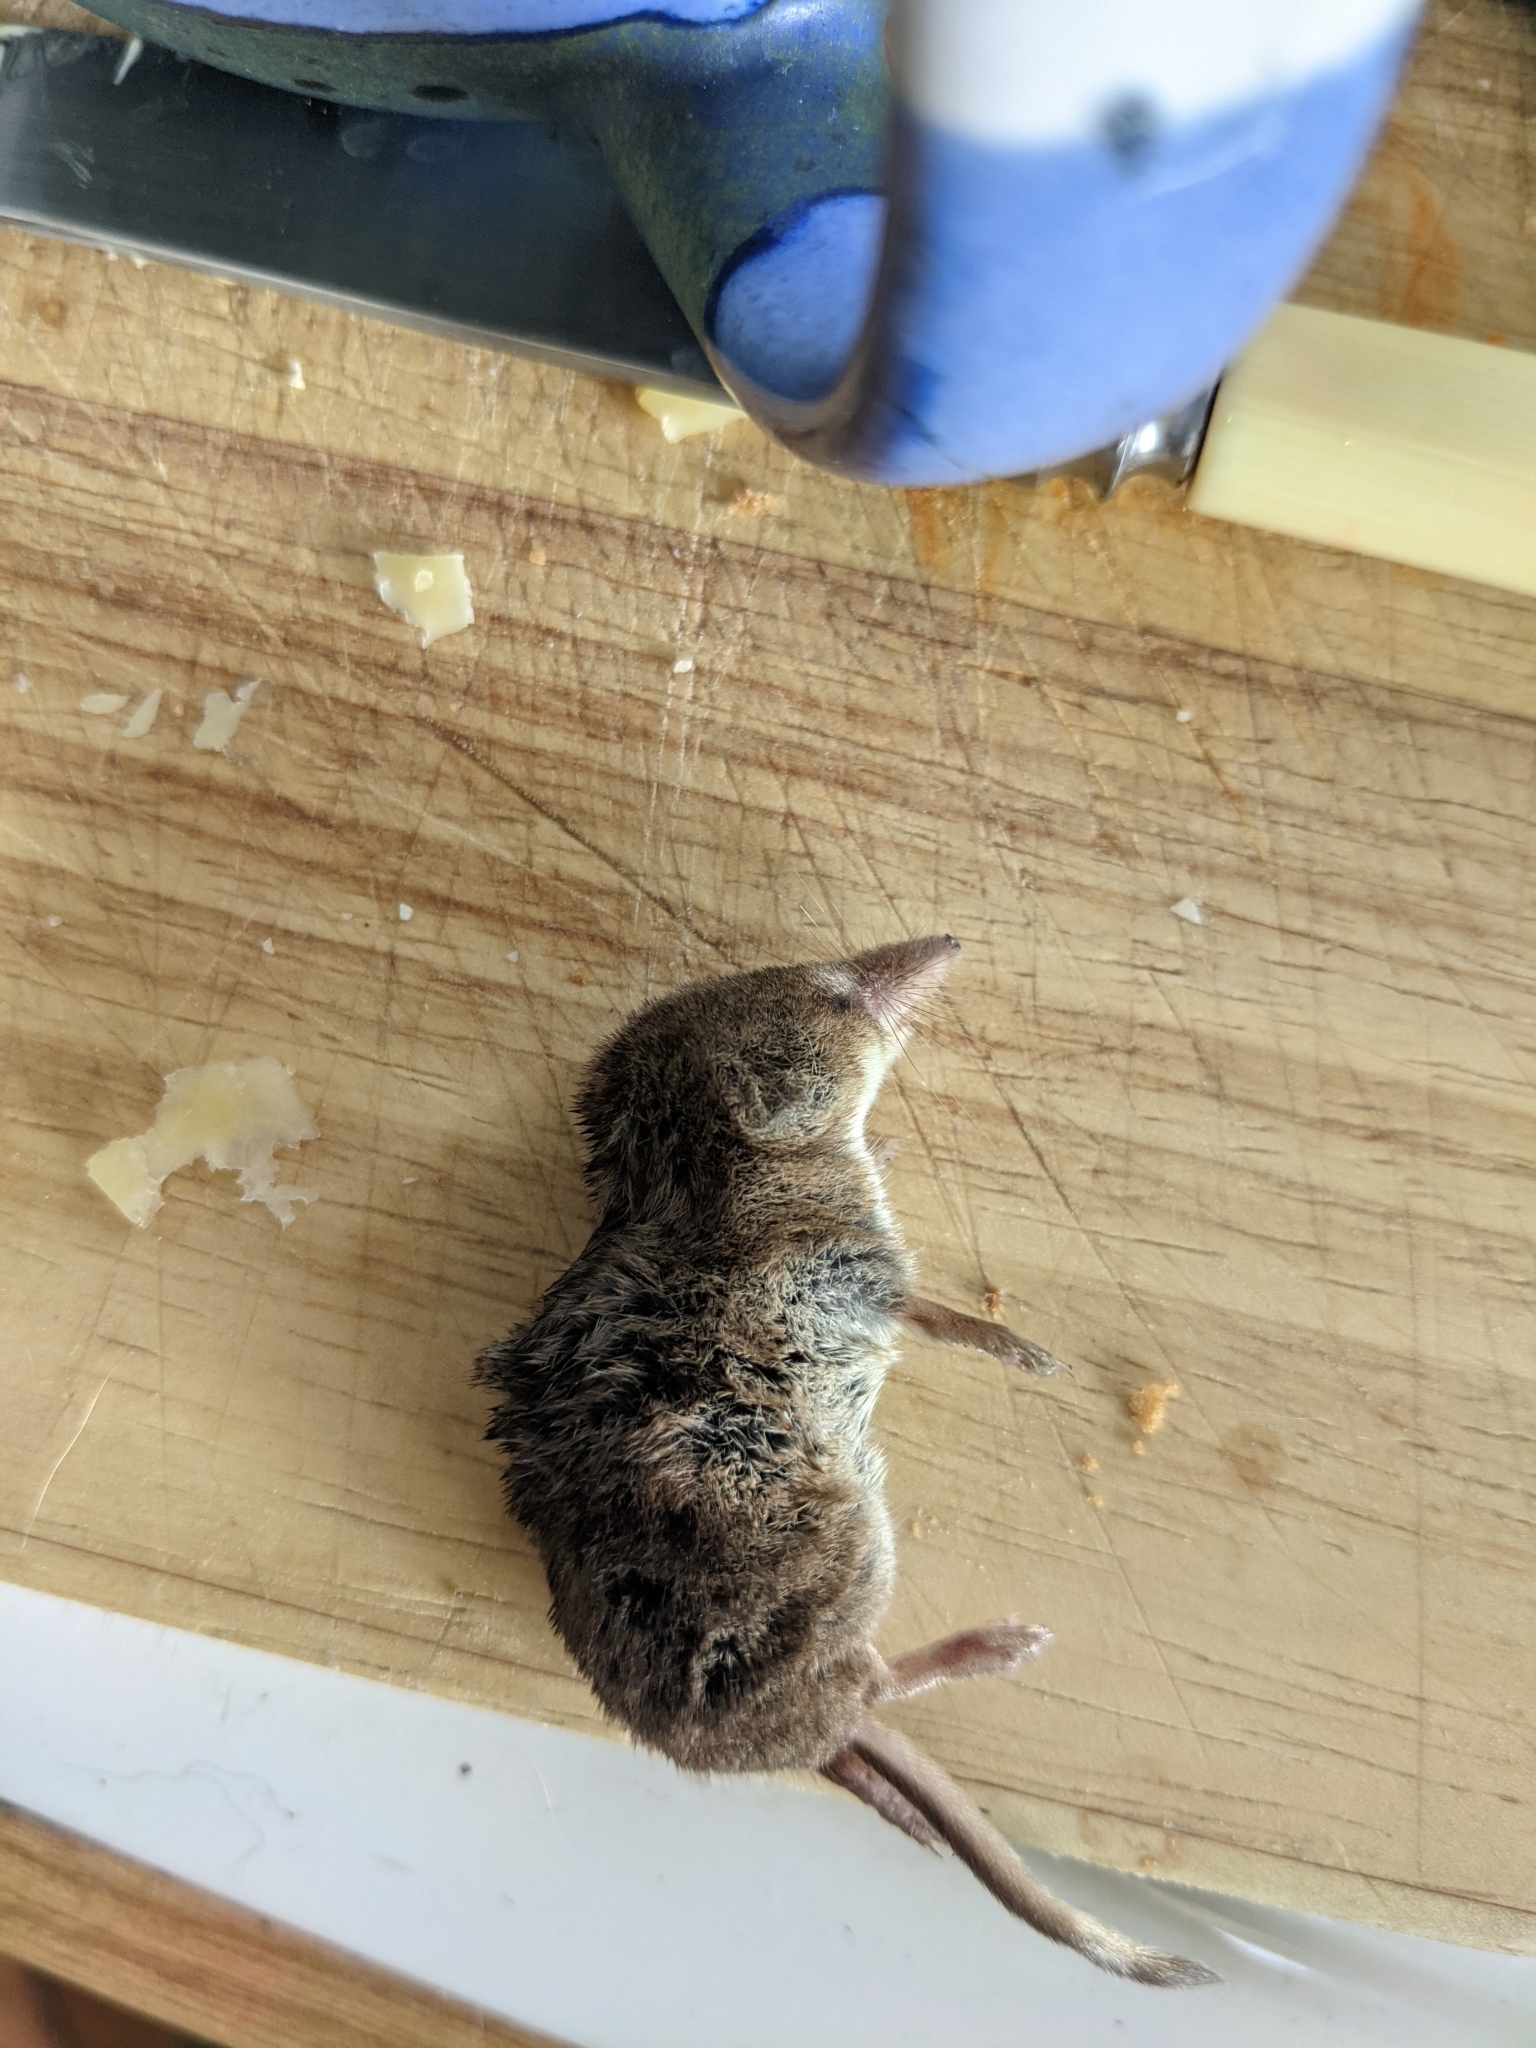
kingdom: Animalia
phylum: Chordata
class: Mammalia
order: Soricomorpha
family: Soricidae
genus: Sorex
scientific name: Sorex araneus
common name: Common shrew
